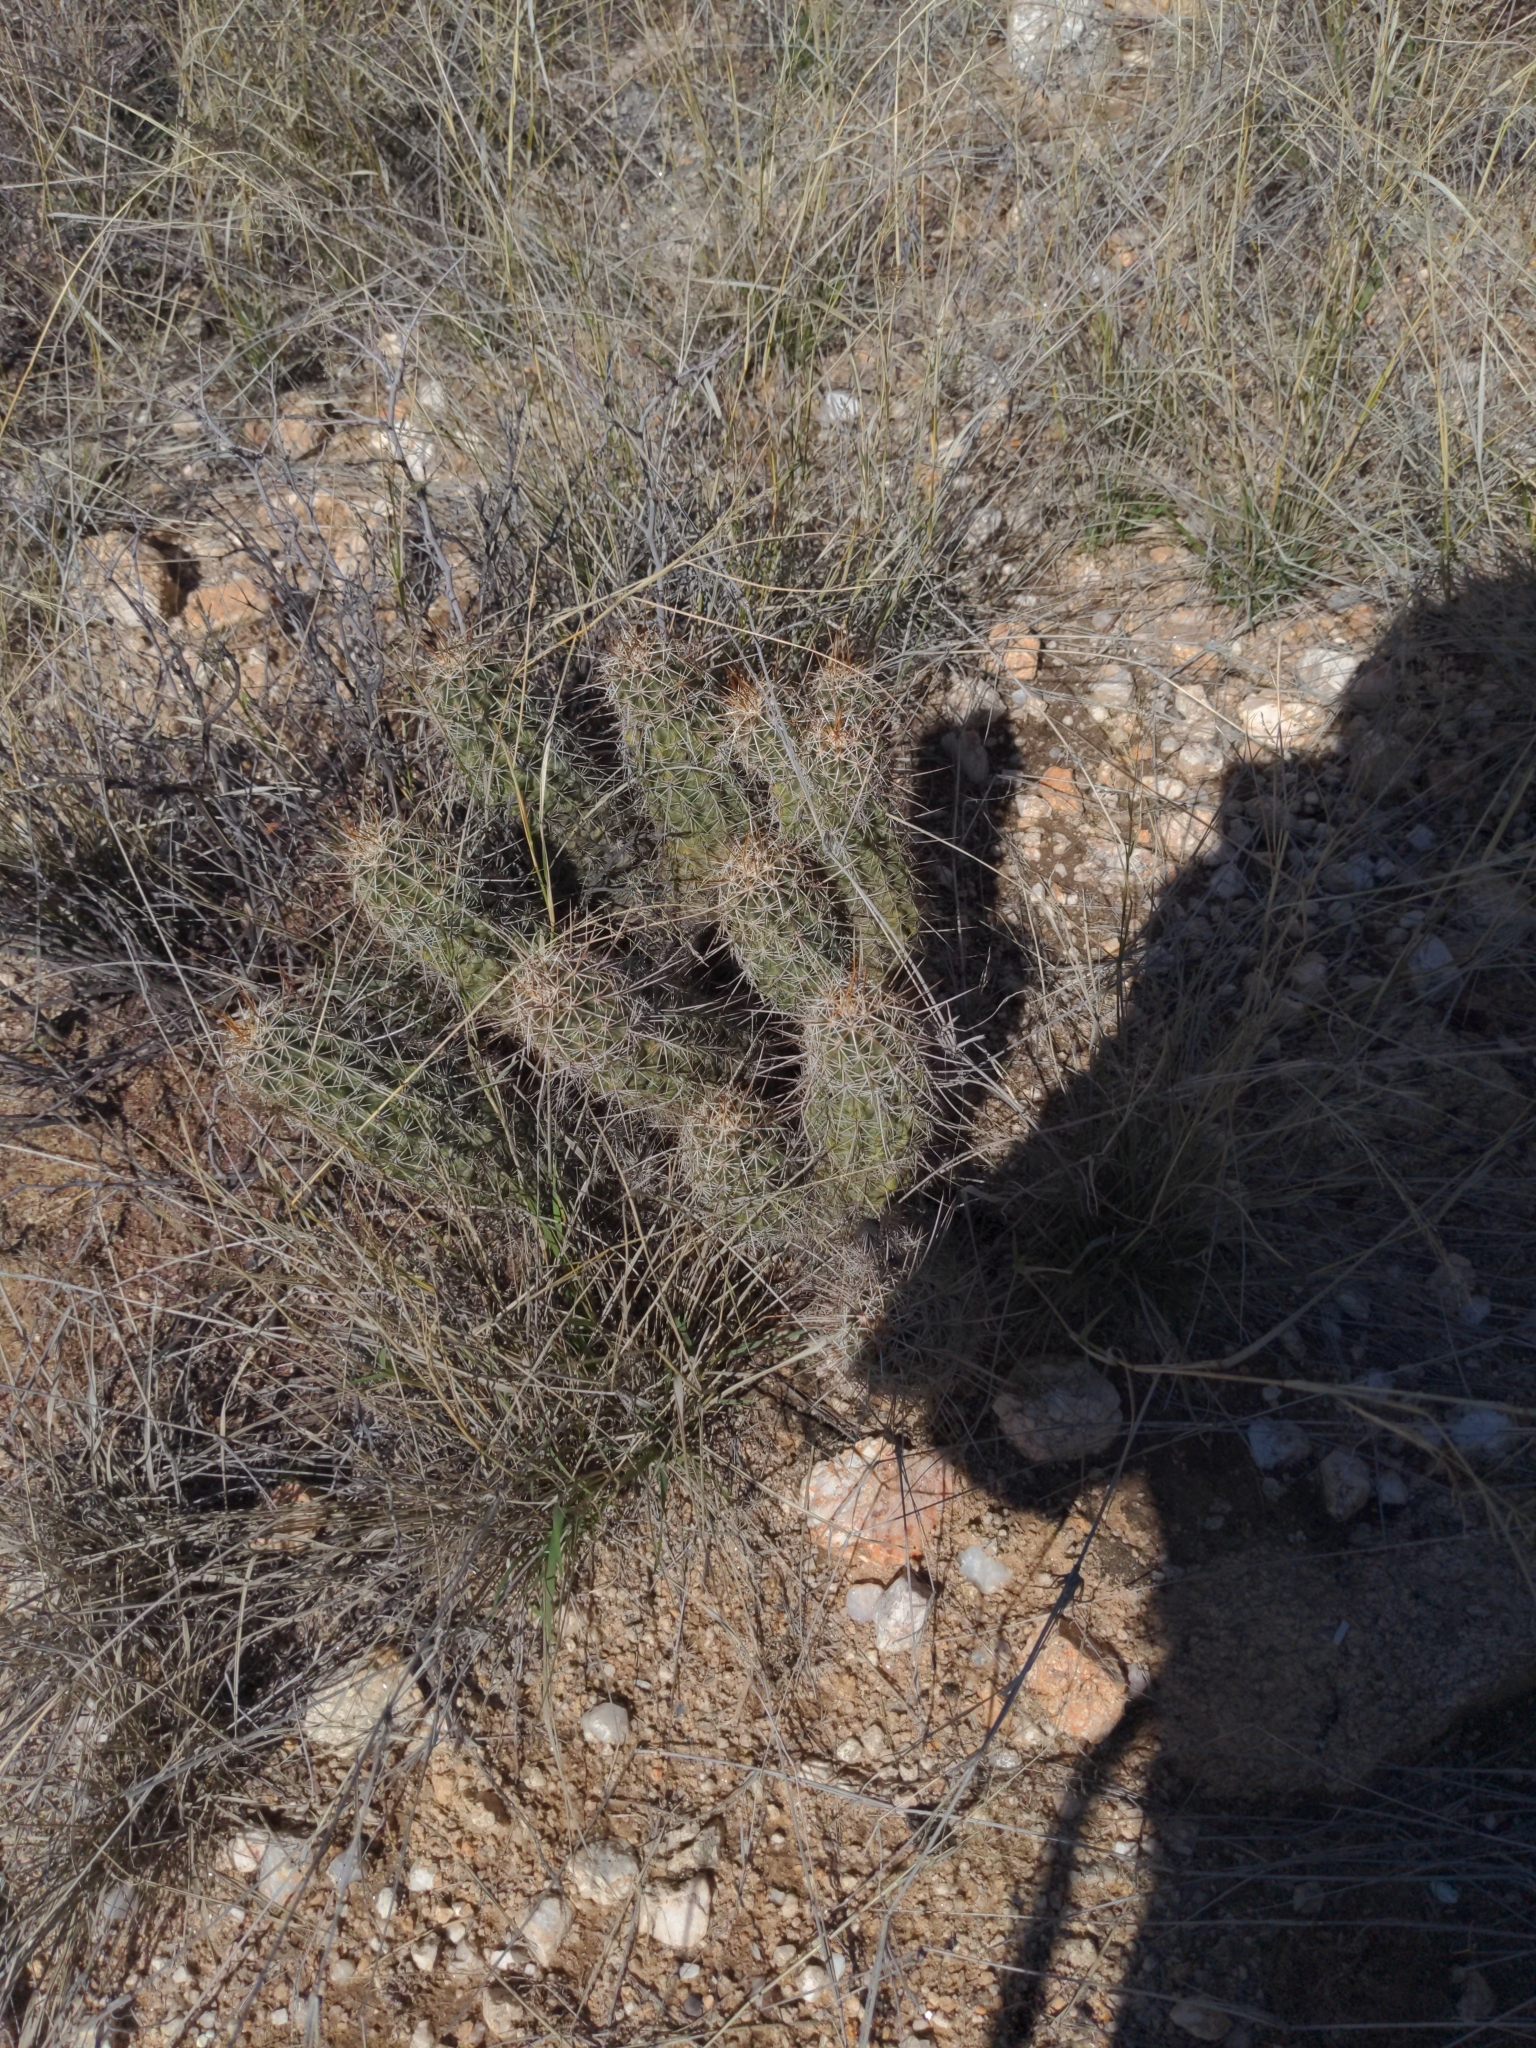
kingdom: Plantae
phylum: Tracheophyta
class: Magnoliopsida
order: Caryophyllales
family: Cactaceae
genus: Echinocereus
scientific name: Echinocereus fasciculatus
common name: Bundle hedgehog
